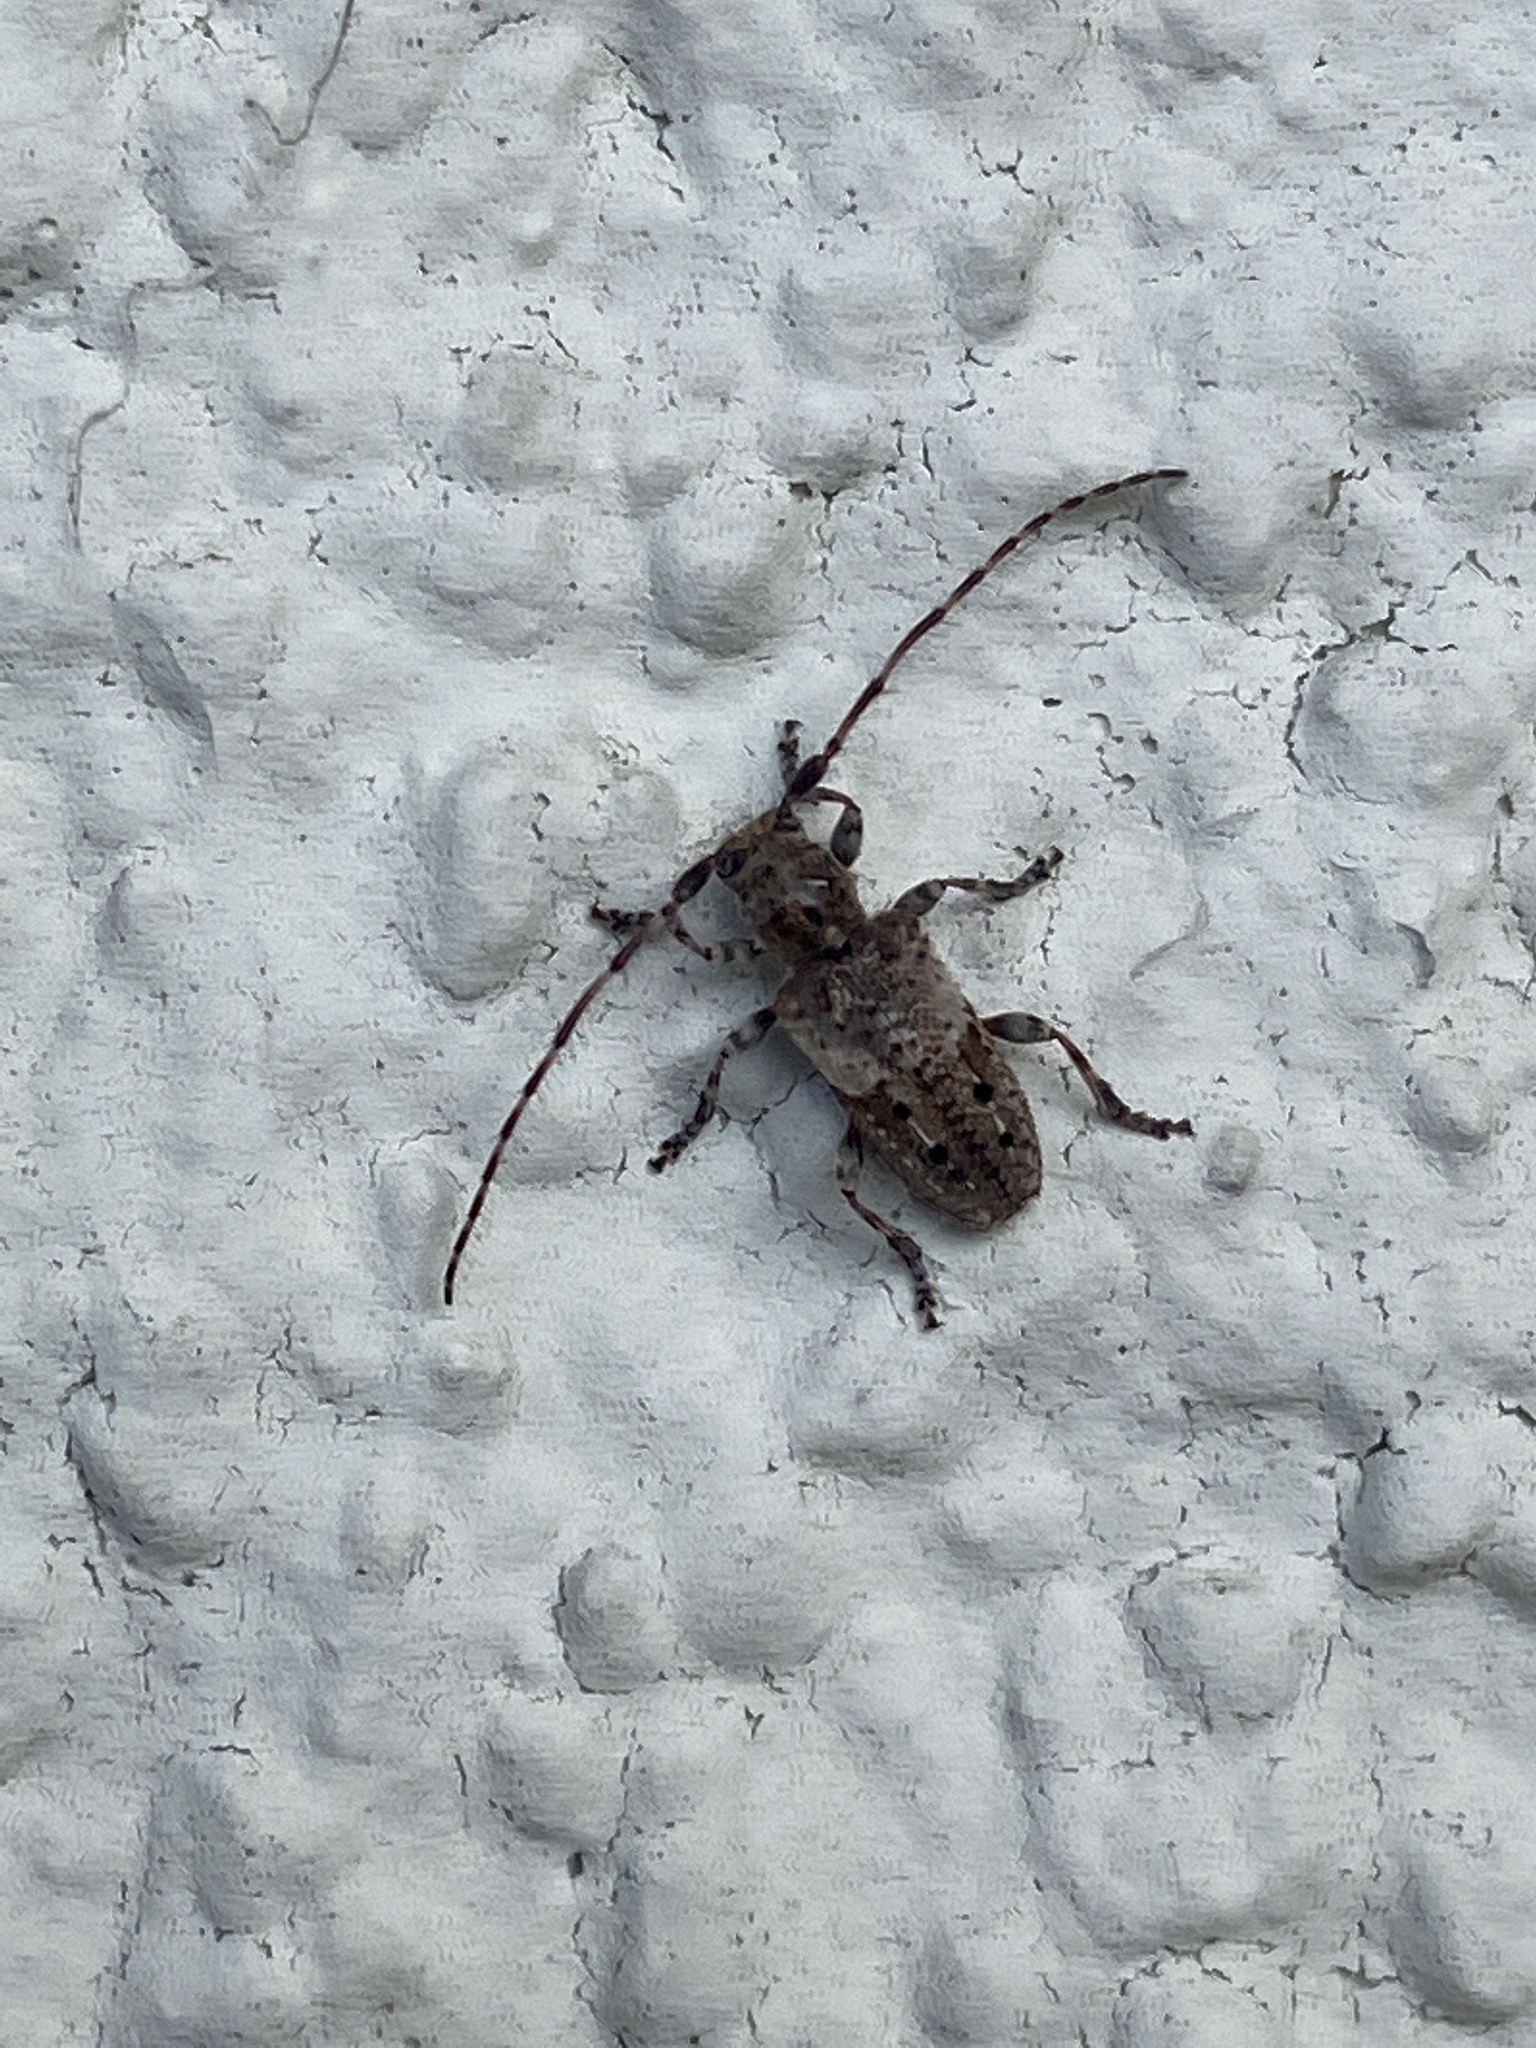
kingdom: Animalia
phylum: Arthropoda
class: Insecta
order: Coleoptera
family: Cerambycidae
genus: Pogonocherus
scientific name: Pogonocherus fasciculatus
